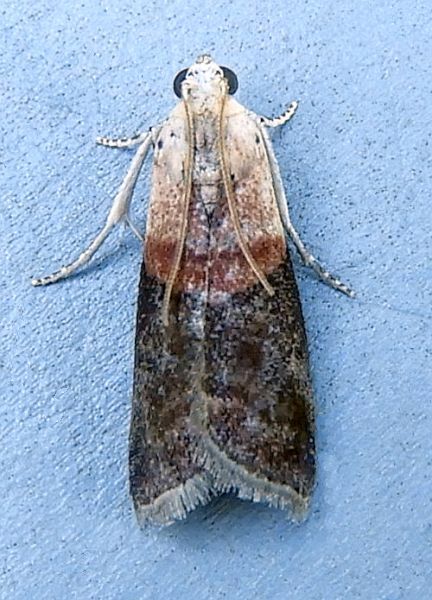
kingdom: Animalia
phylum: Arthropoda
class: Insecta
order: Lepidoptera
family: Pyralidae
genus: Acrobasis
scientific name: Acrobasis palliolella
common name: Mantled acrobasis moth
